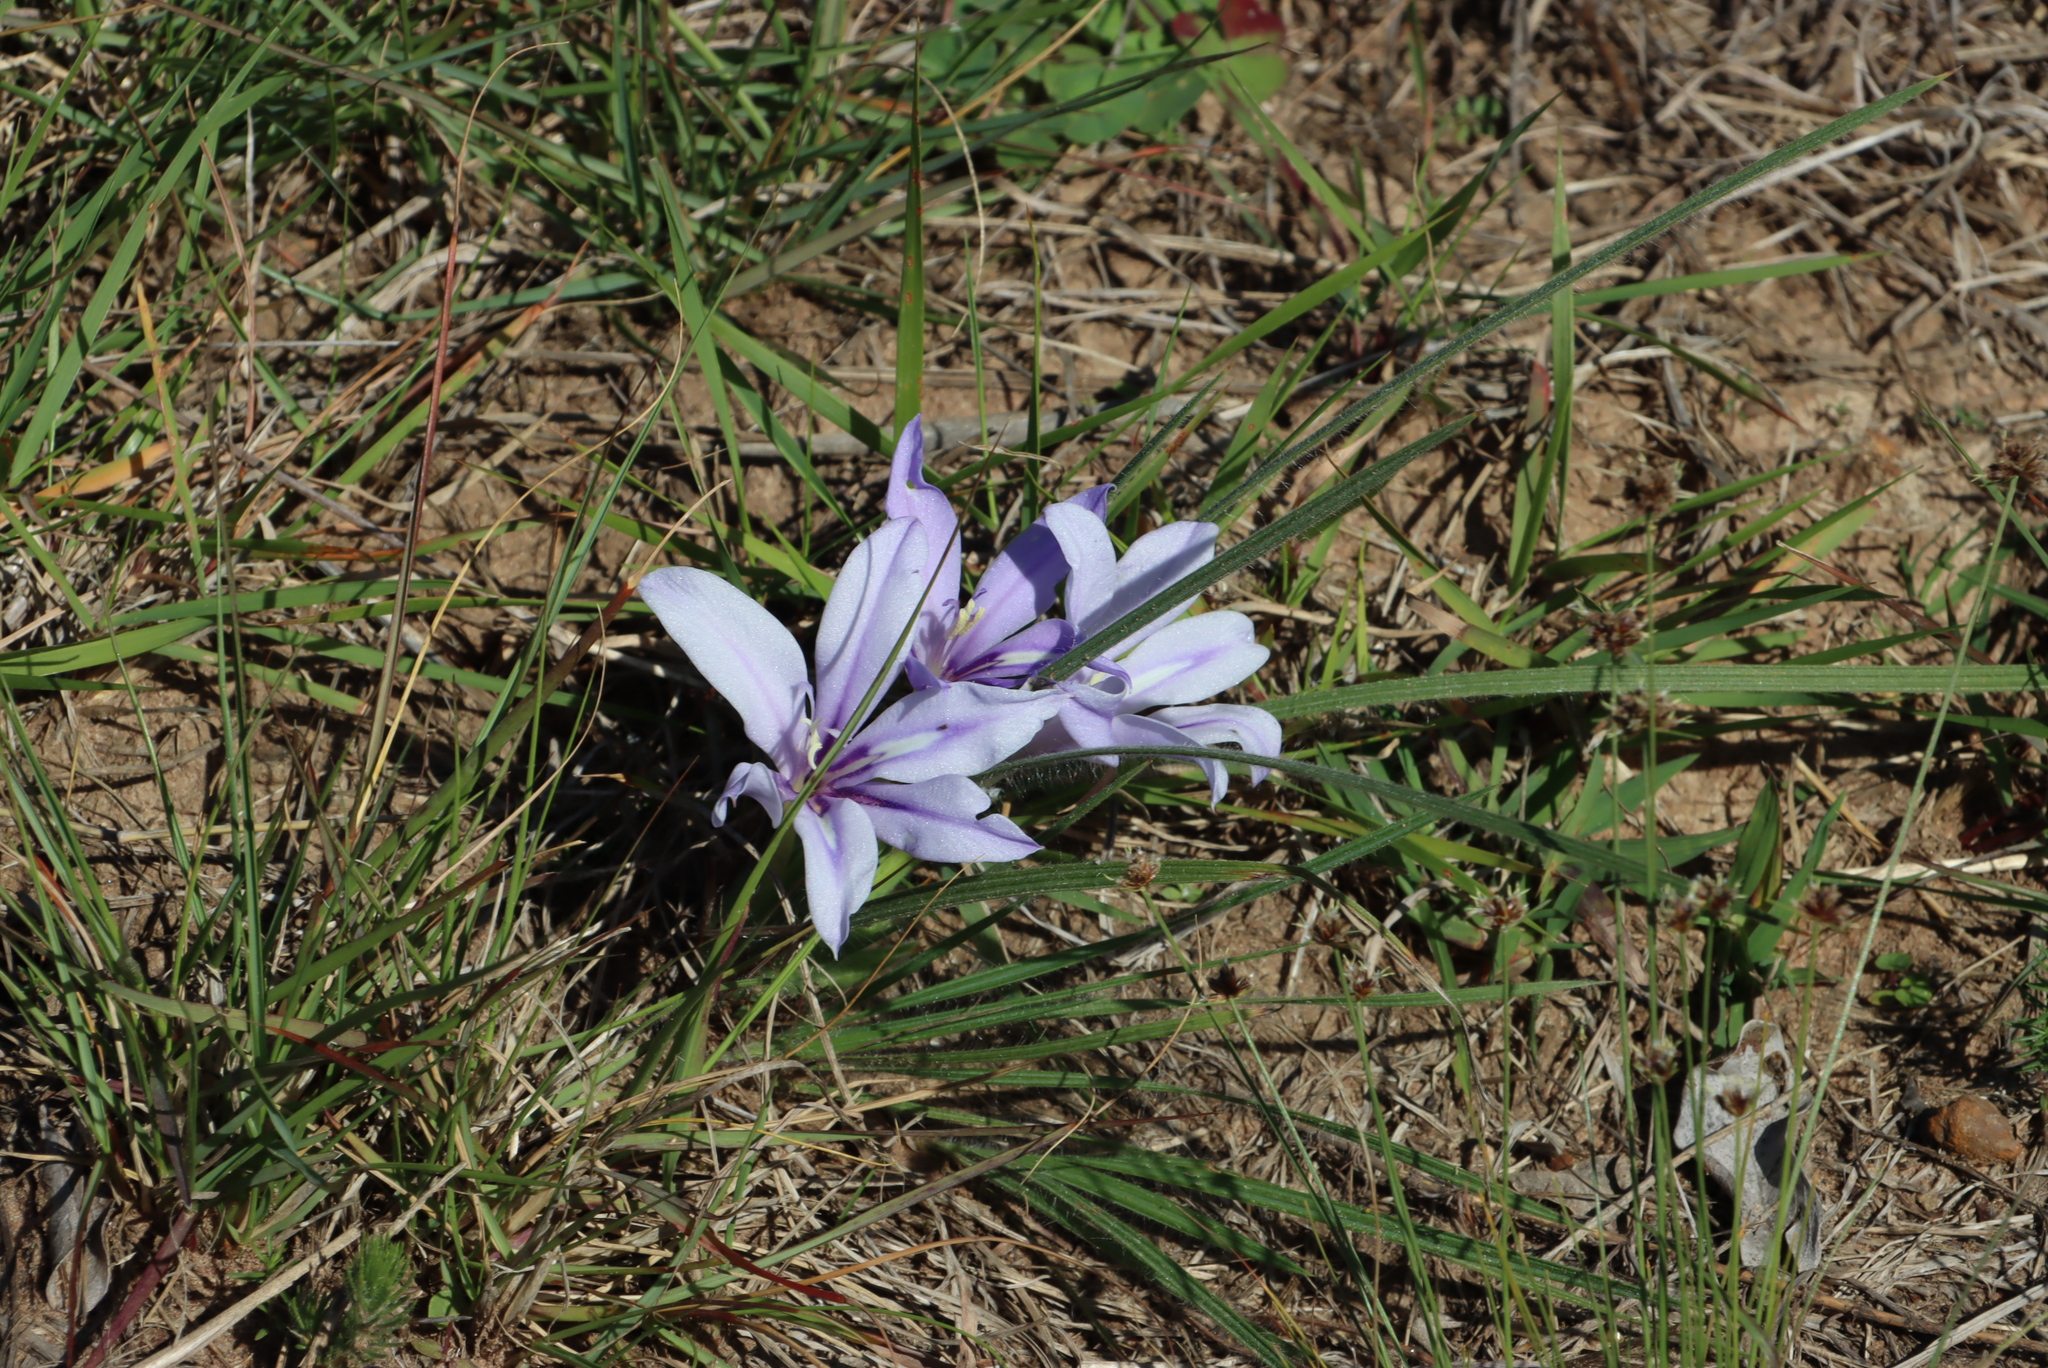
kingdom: Plantae
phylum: Tracheophyta
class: Liliopsida
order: Asparagales
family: Iridaceae
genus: Babiana
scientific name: Babiana sambucina
